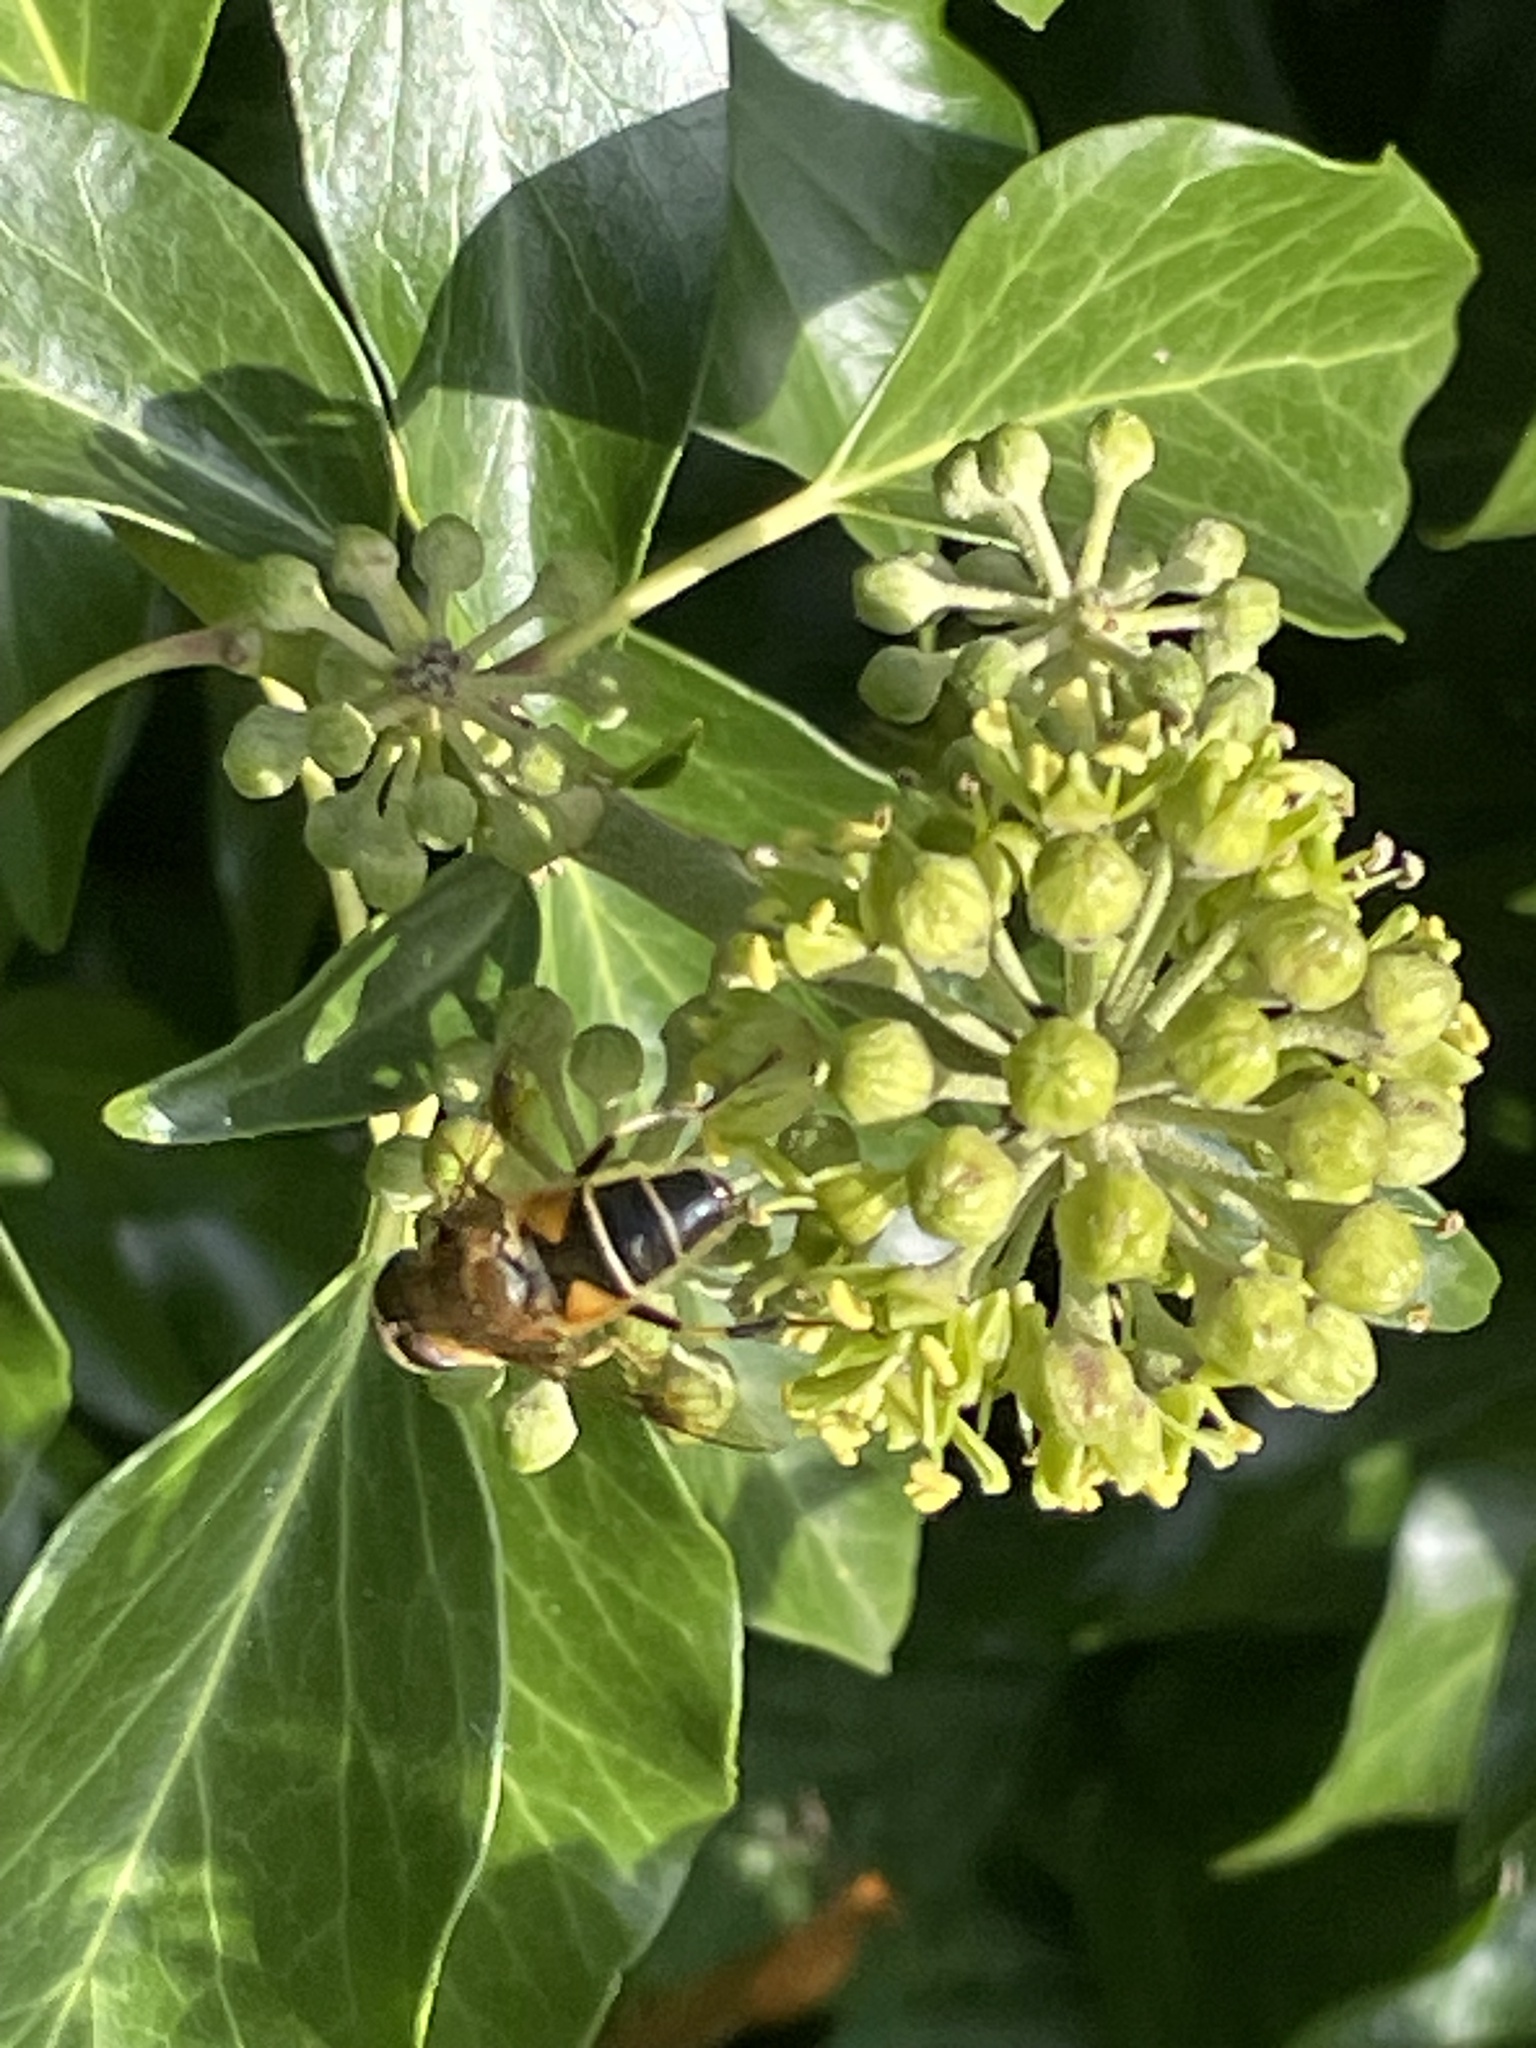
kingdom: Animalia
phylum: Arthropoda
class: Insecta
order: Diptera
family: Syrphidae
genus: Eristalis
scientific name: Eristalis pertinax
